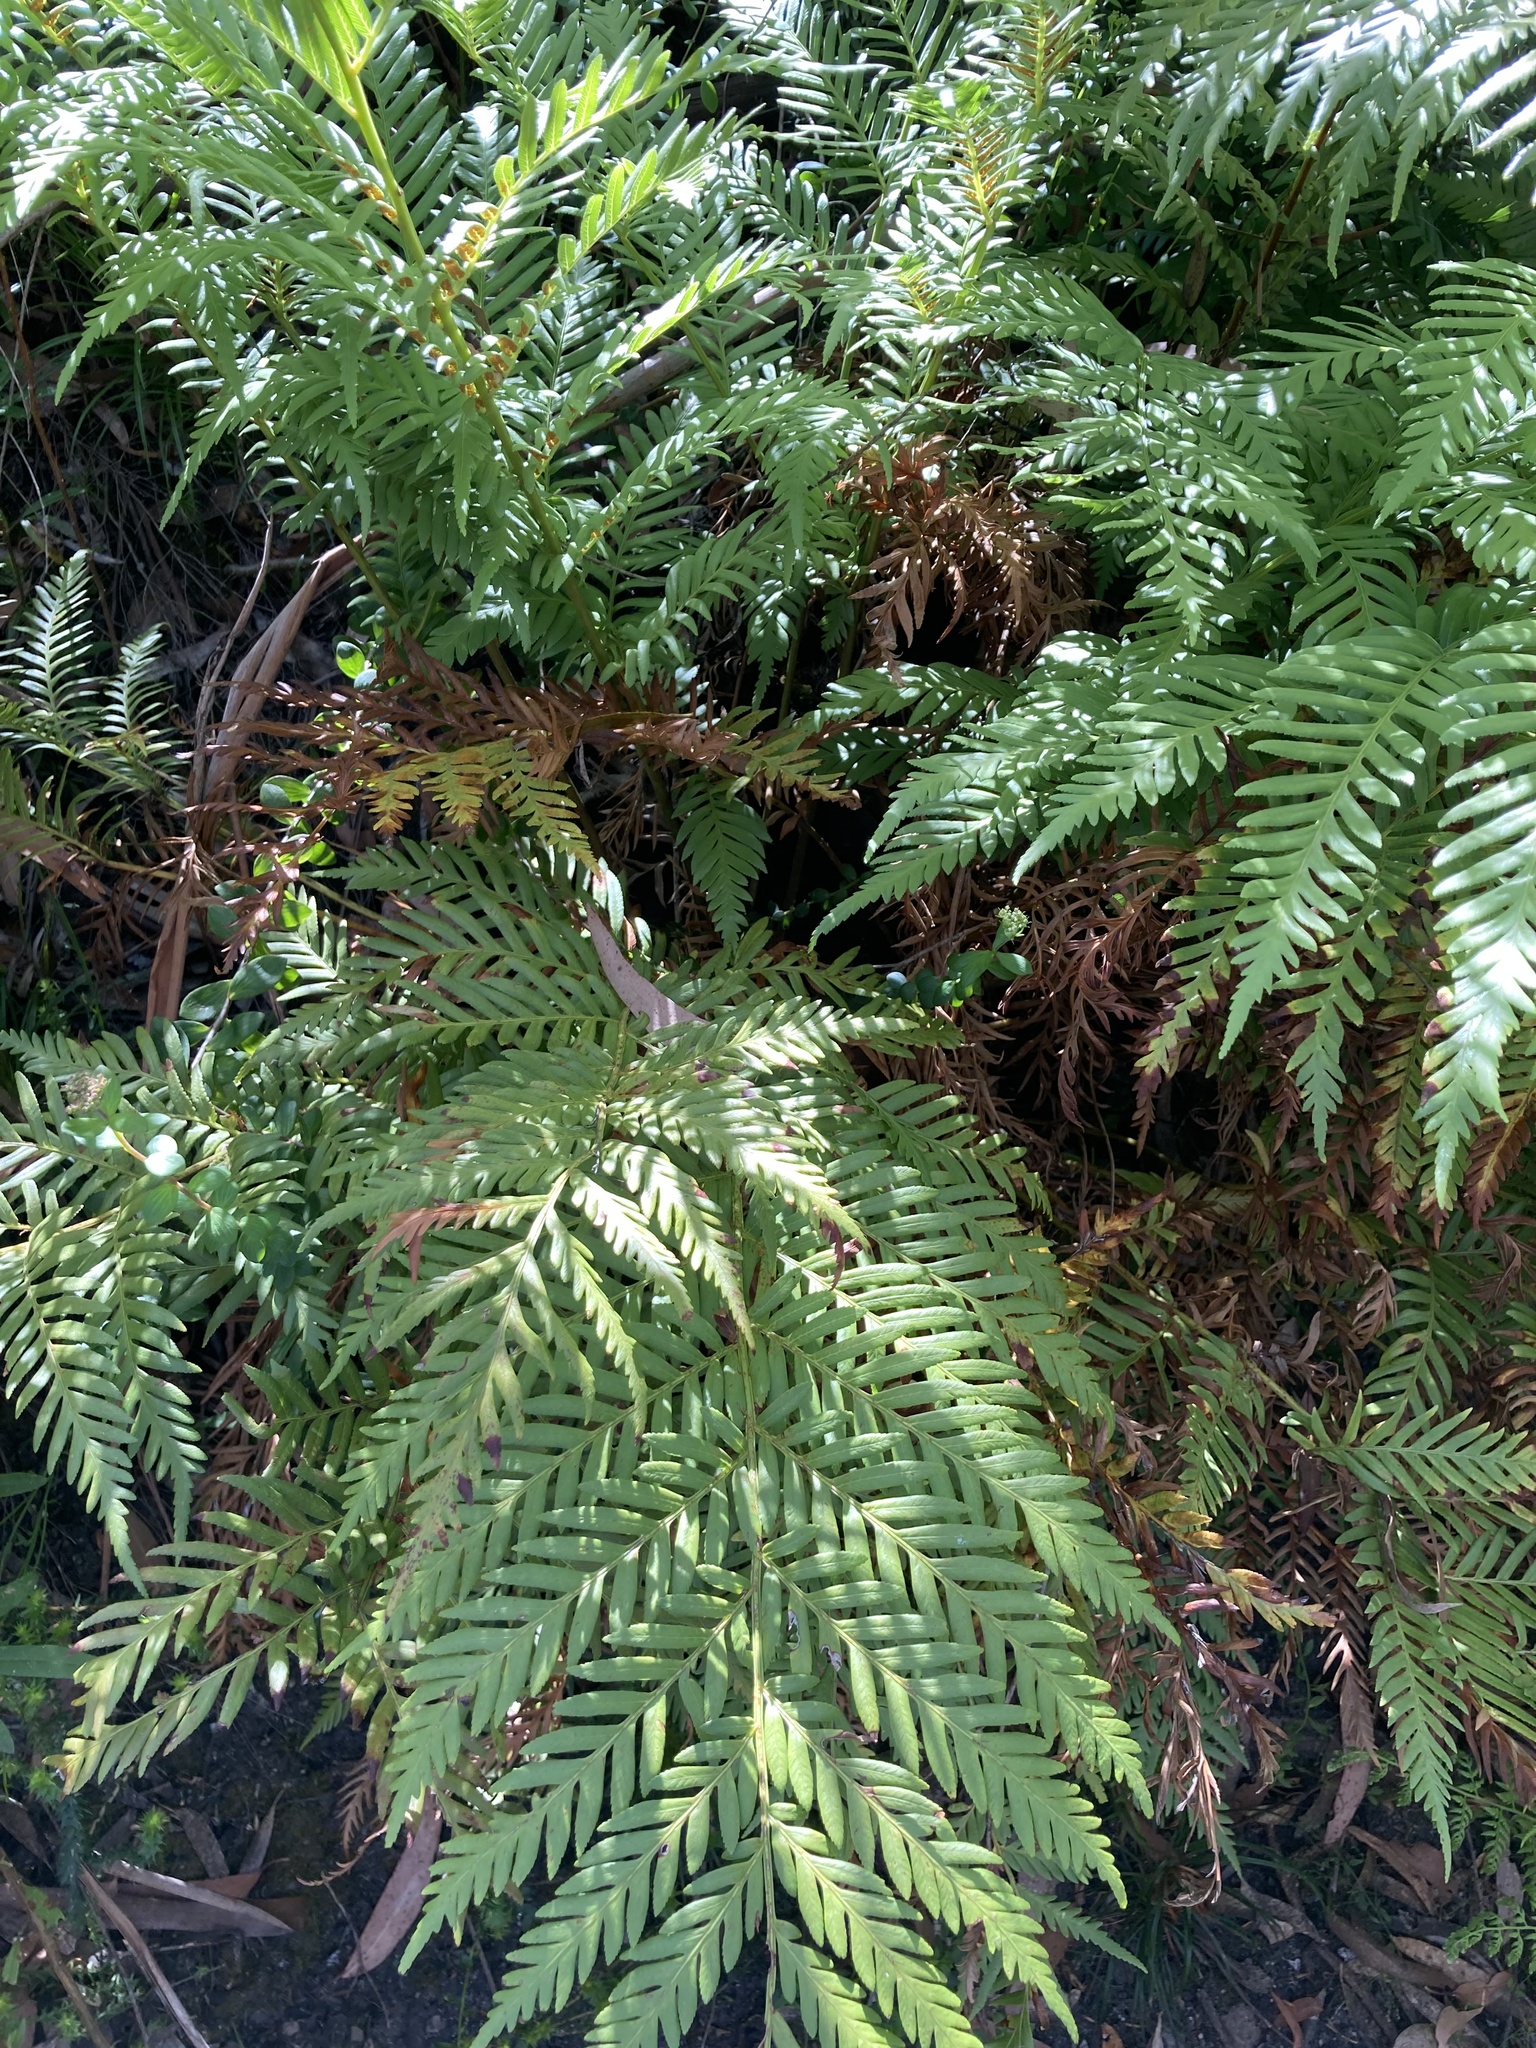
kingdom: Plantae
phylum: Tracheophyta
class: Polypodiopsida
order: Osmundales
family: Osmundaceae
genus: Todea
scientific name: Todea barbara
